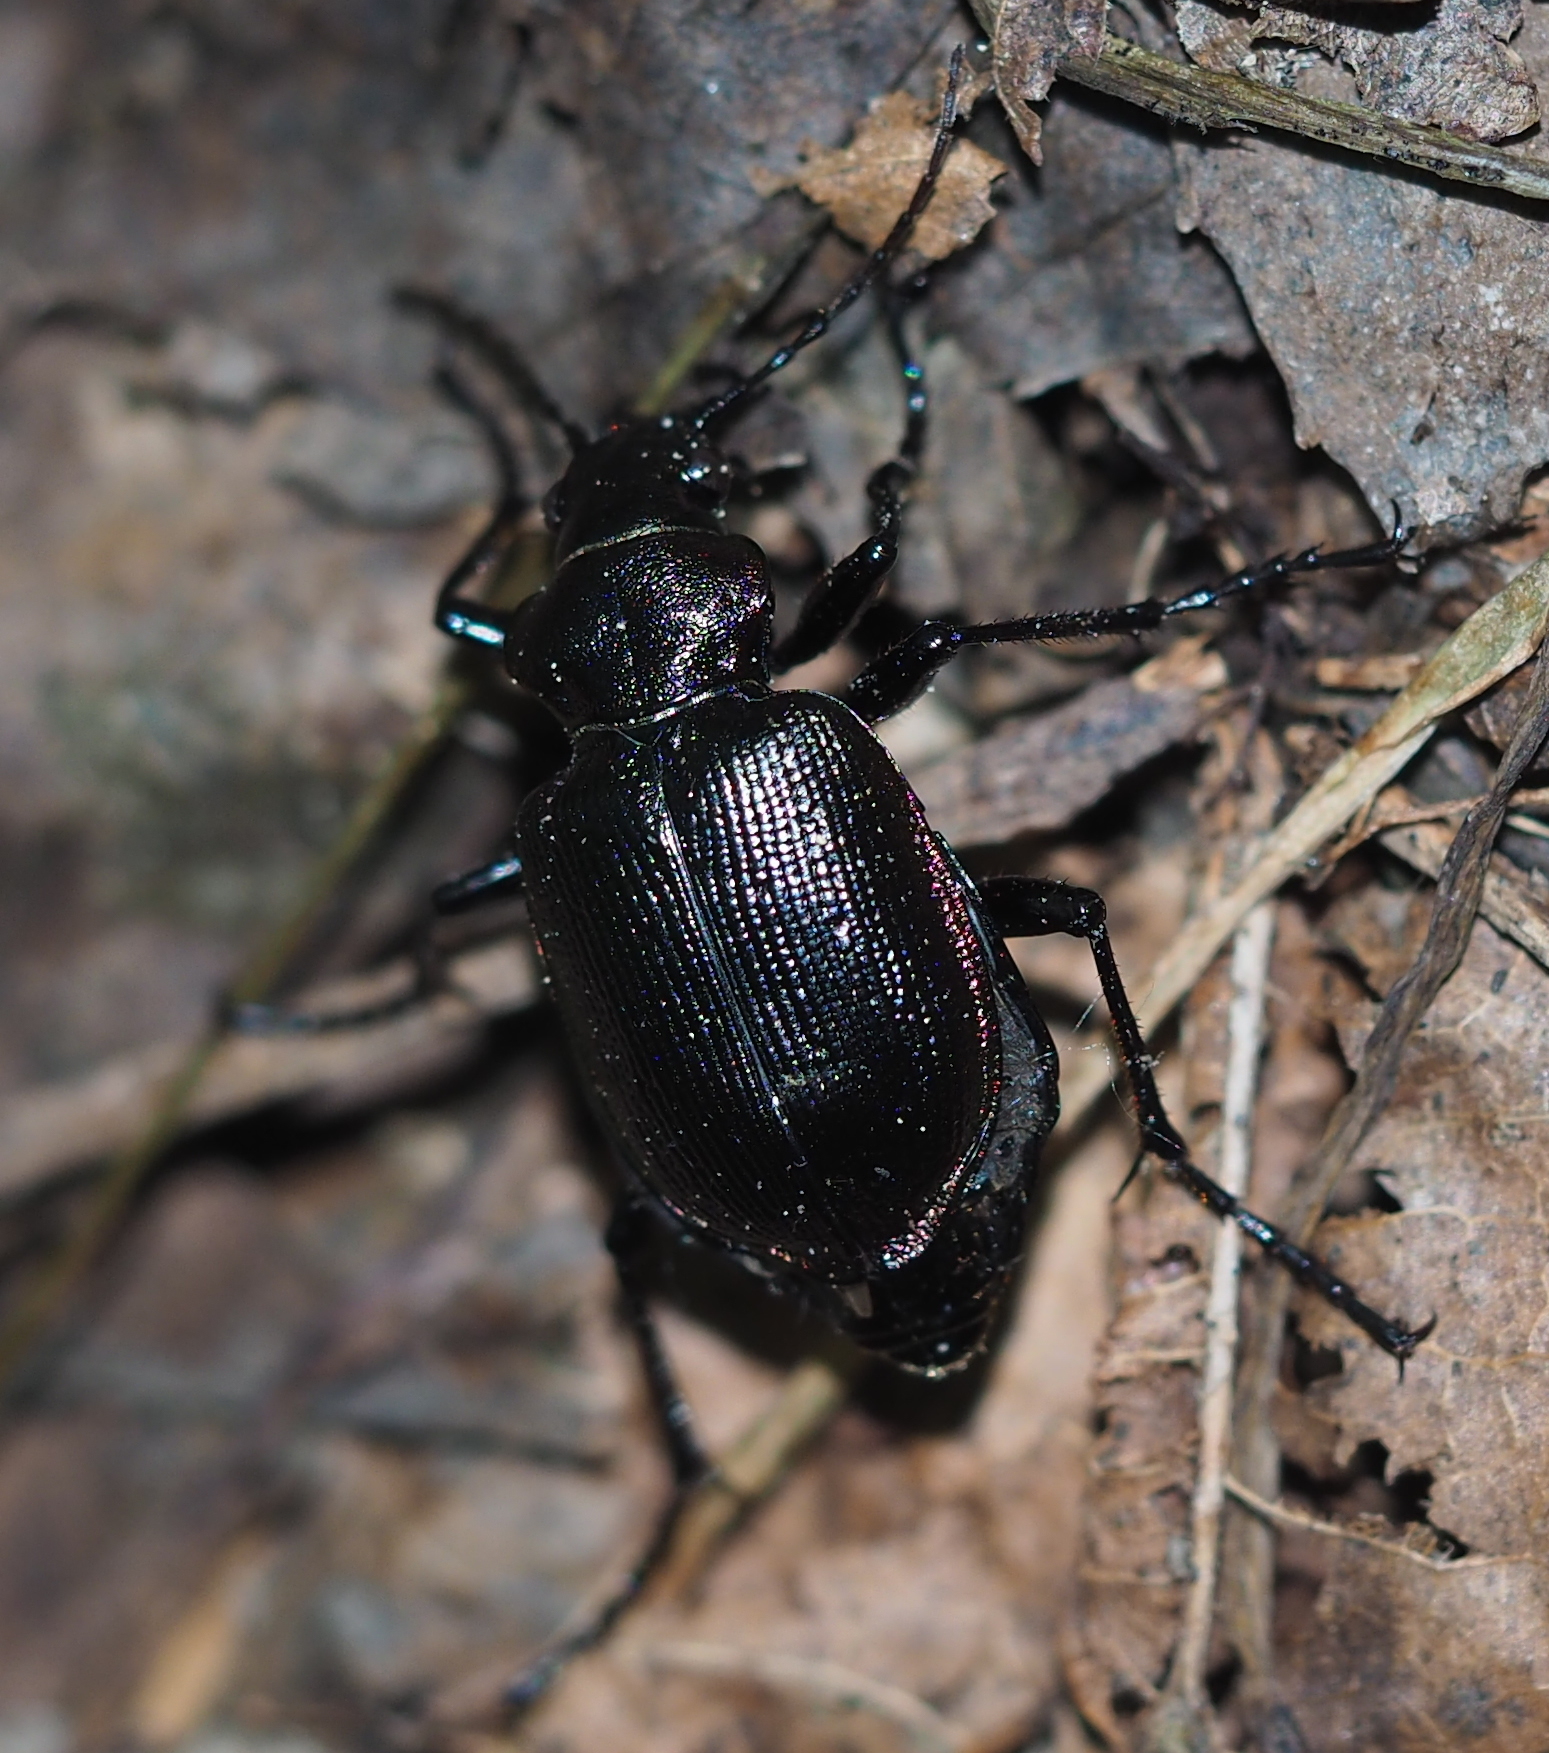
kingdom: Animalia
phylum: Arthropoda
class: Insecta
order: Coleoptera
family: Carabidae
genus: Calosoma
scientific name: Calosoma inquisitor
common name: Caterpillar-hunter
